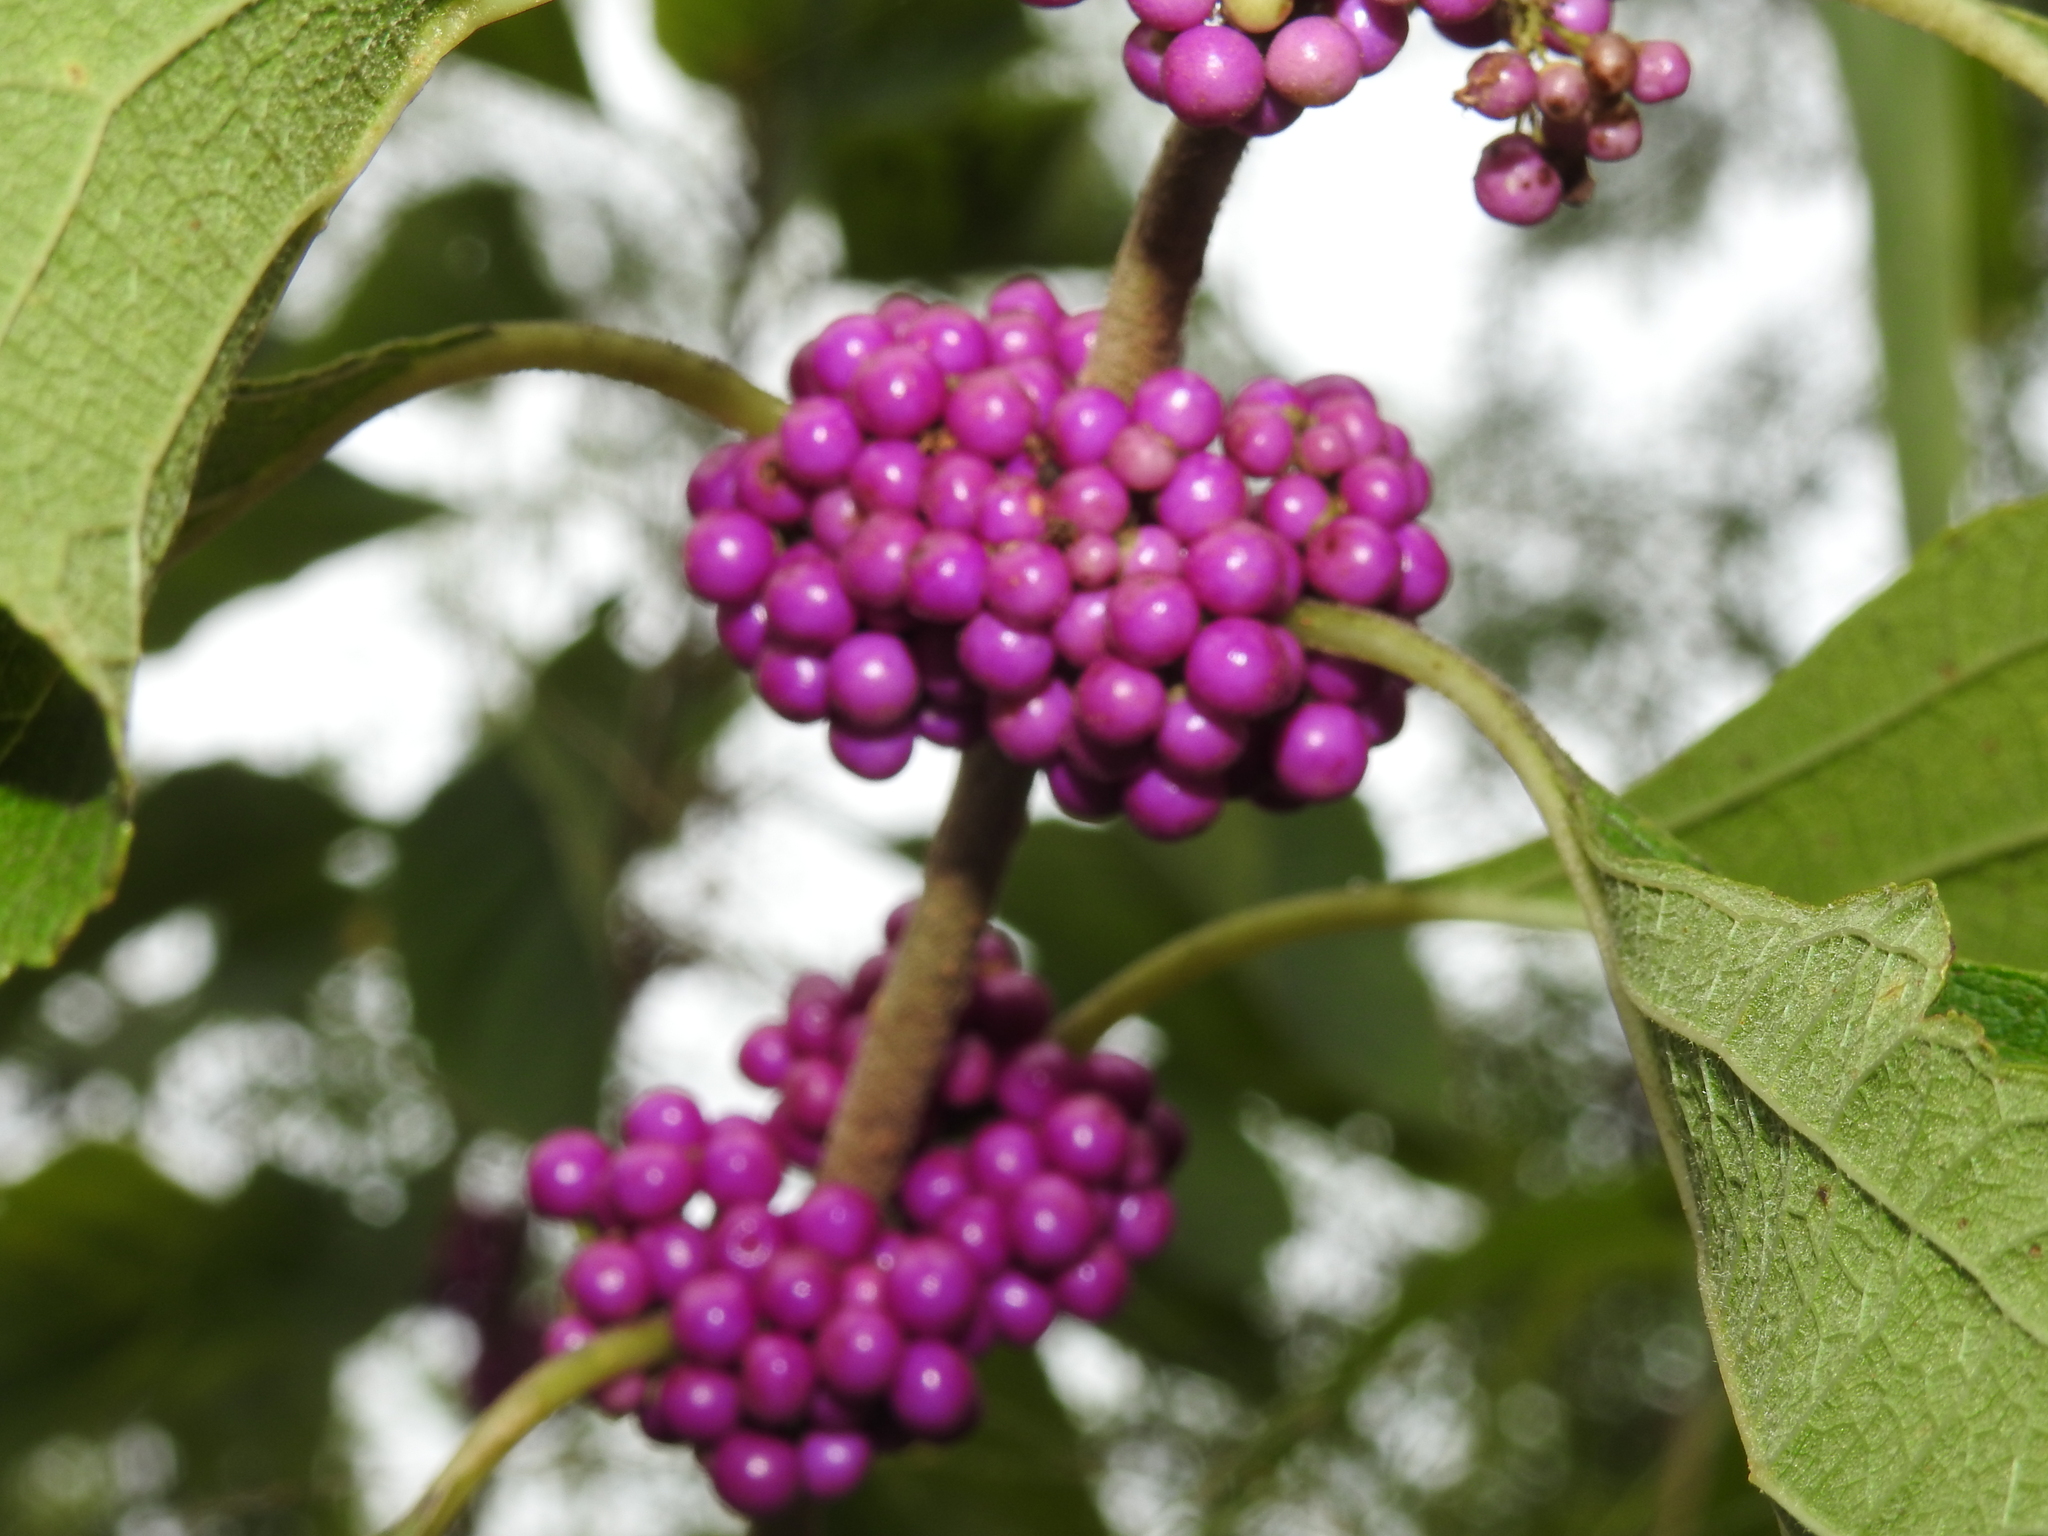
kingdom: Plantae
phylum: Tracheophyta
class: Magnoliopsida
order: Lamiales
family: Lamiaceae
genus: Callicarpa
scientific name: Callicarpa americana
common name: American beautyberry
